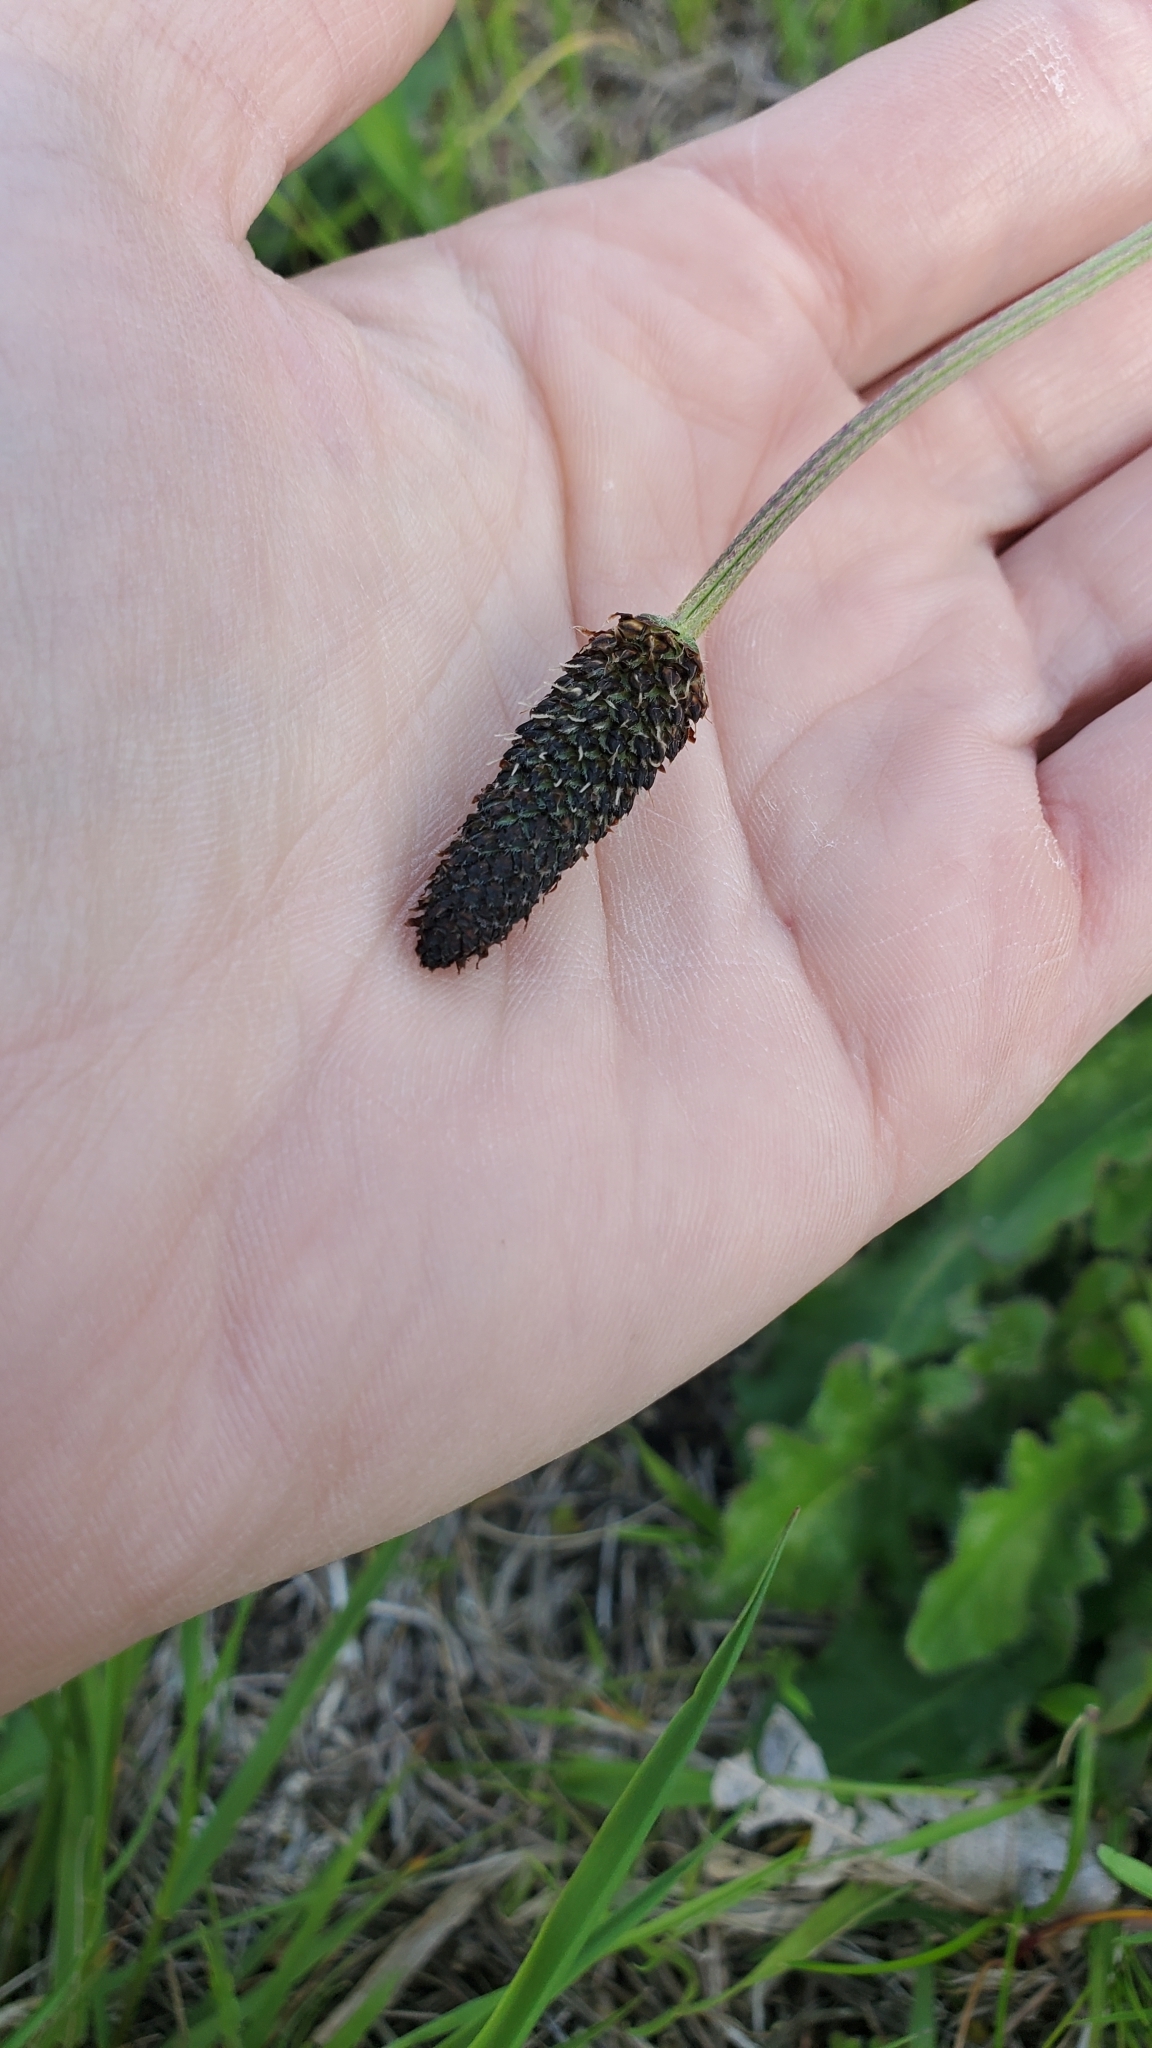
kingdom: Plantae
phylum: Tracheophyta
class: Magnoliopsida
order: Lamiales
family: Plantaginaceae
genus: Plantago
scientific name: Plantago lanceolata
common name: Ribwort plantain
